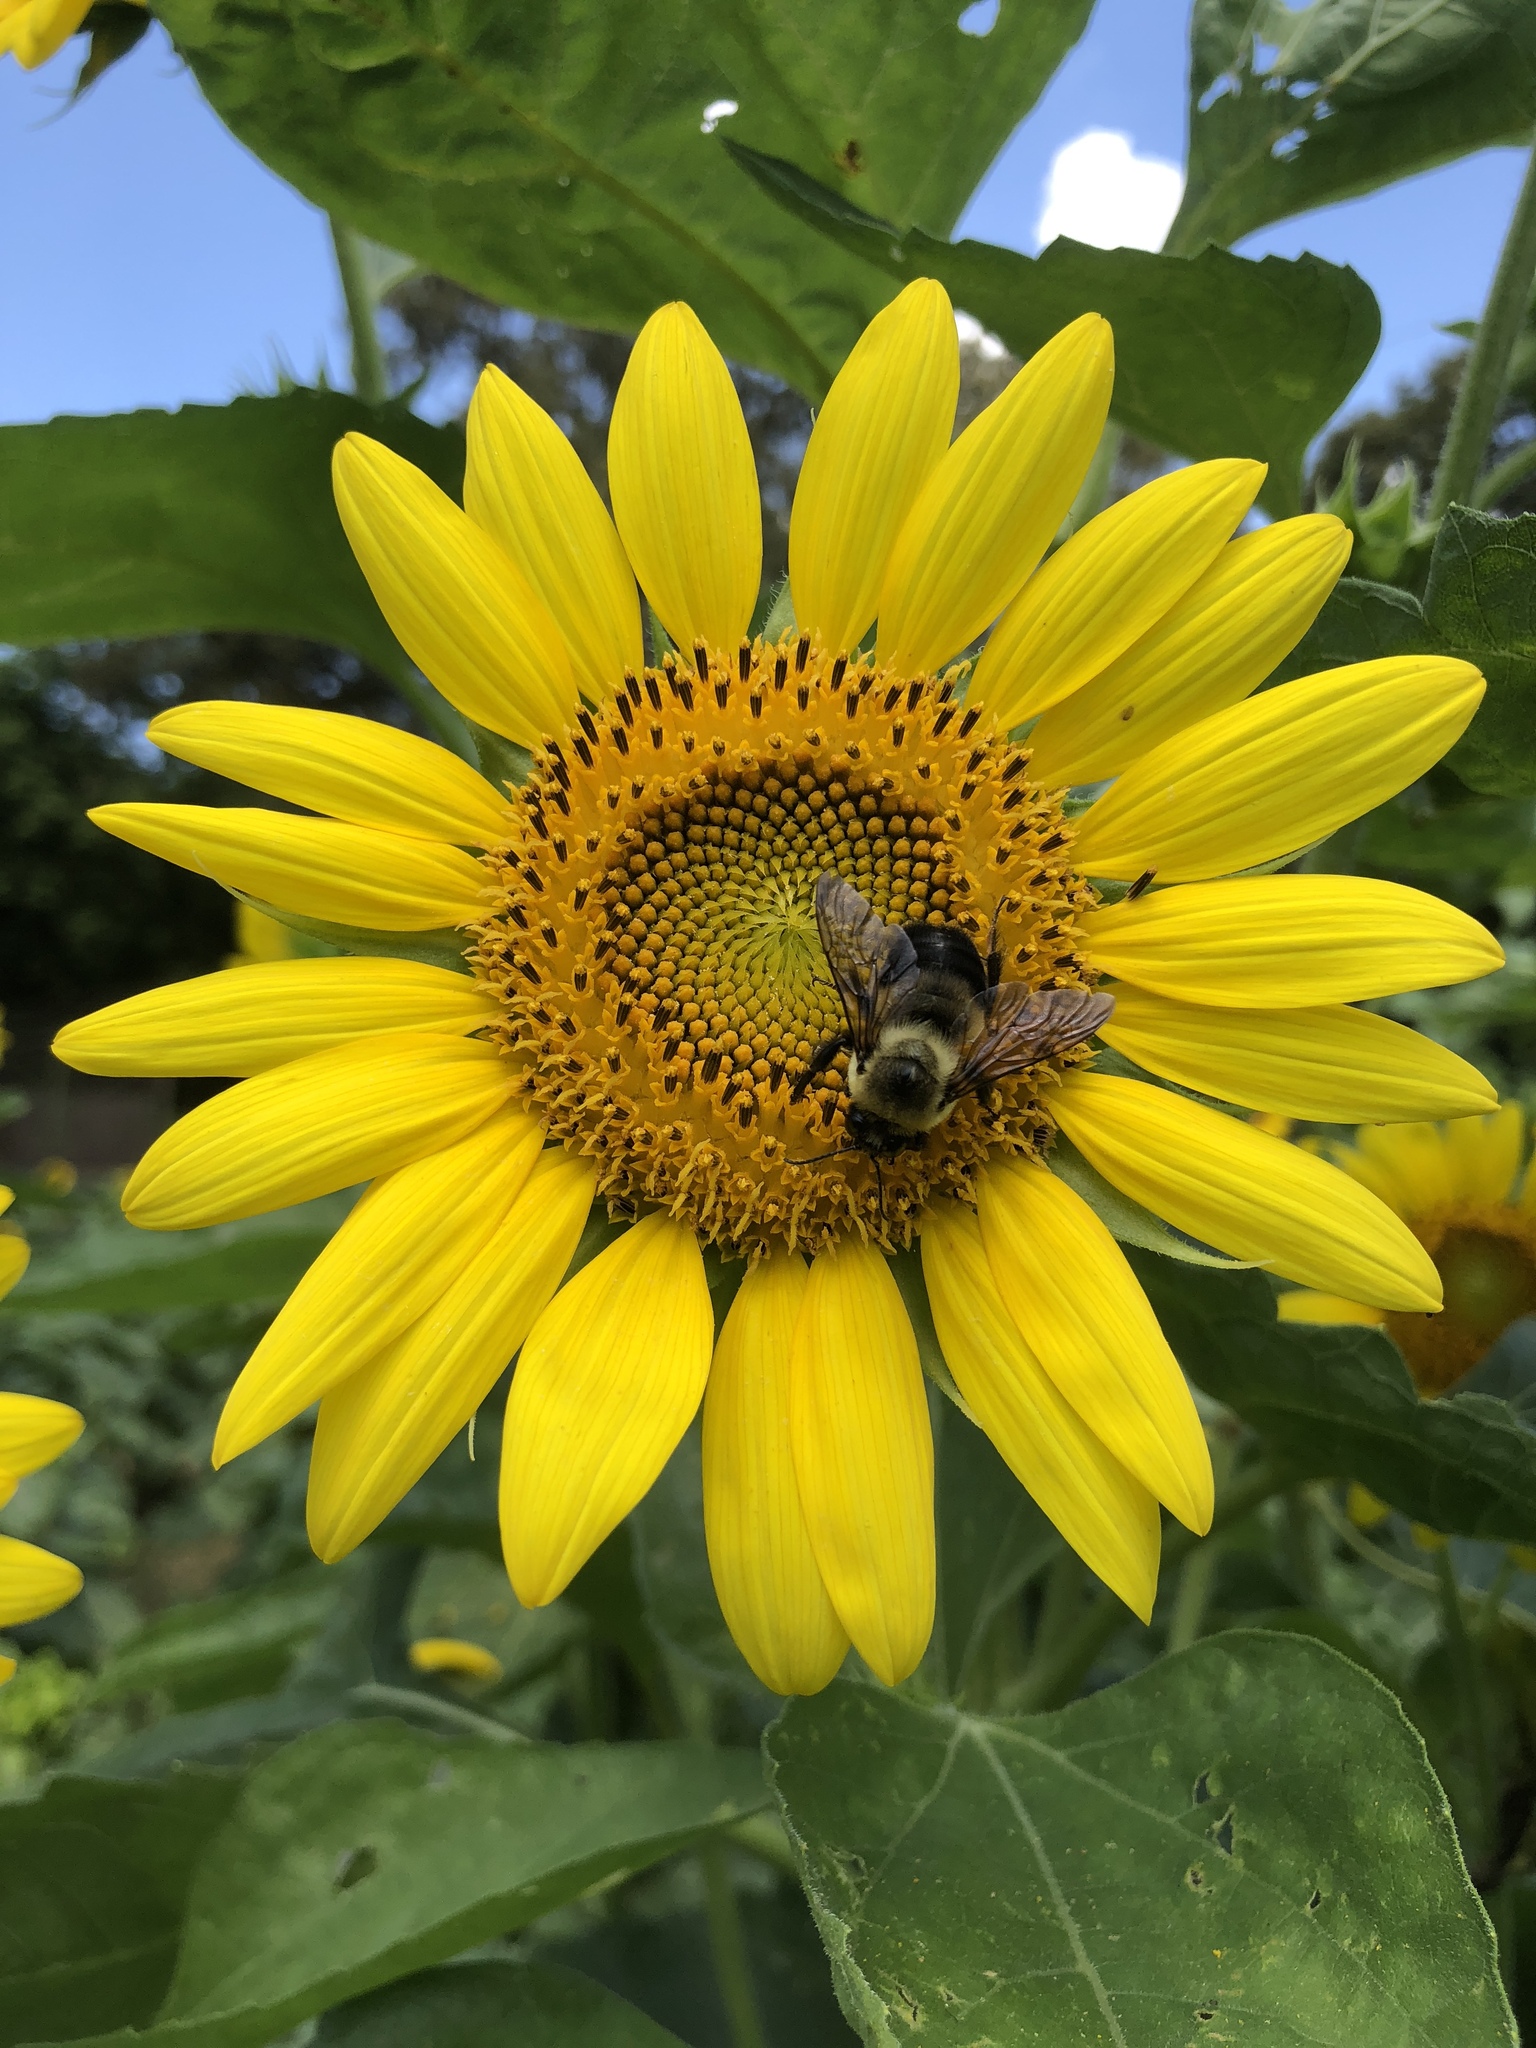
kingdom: Animalia
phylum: Arthropoda
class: Insecta
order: Hymenoptera
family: Apidae
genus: Bombus
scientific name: Bombus griseocollis
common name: Brown-belted bumble bee
